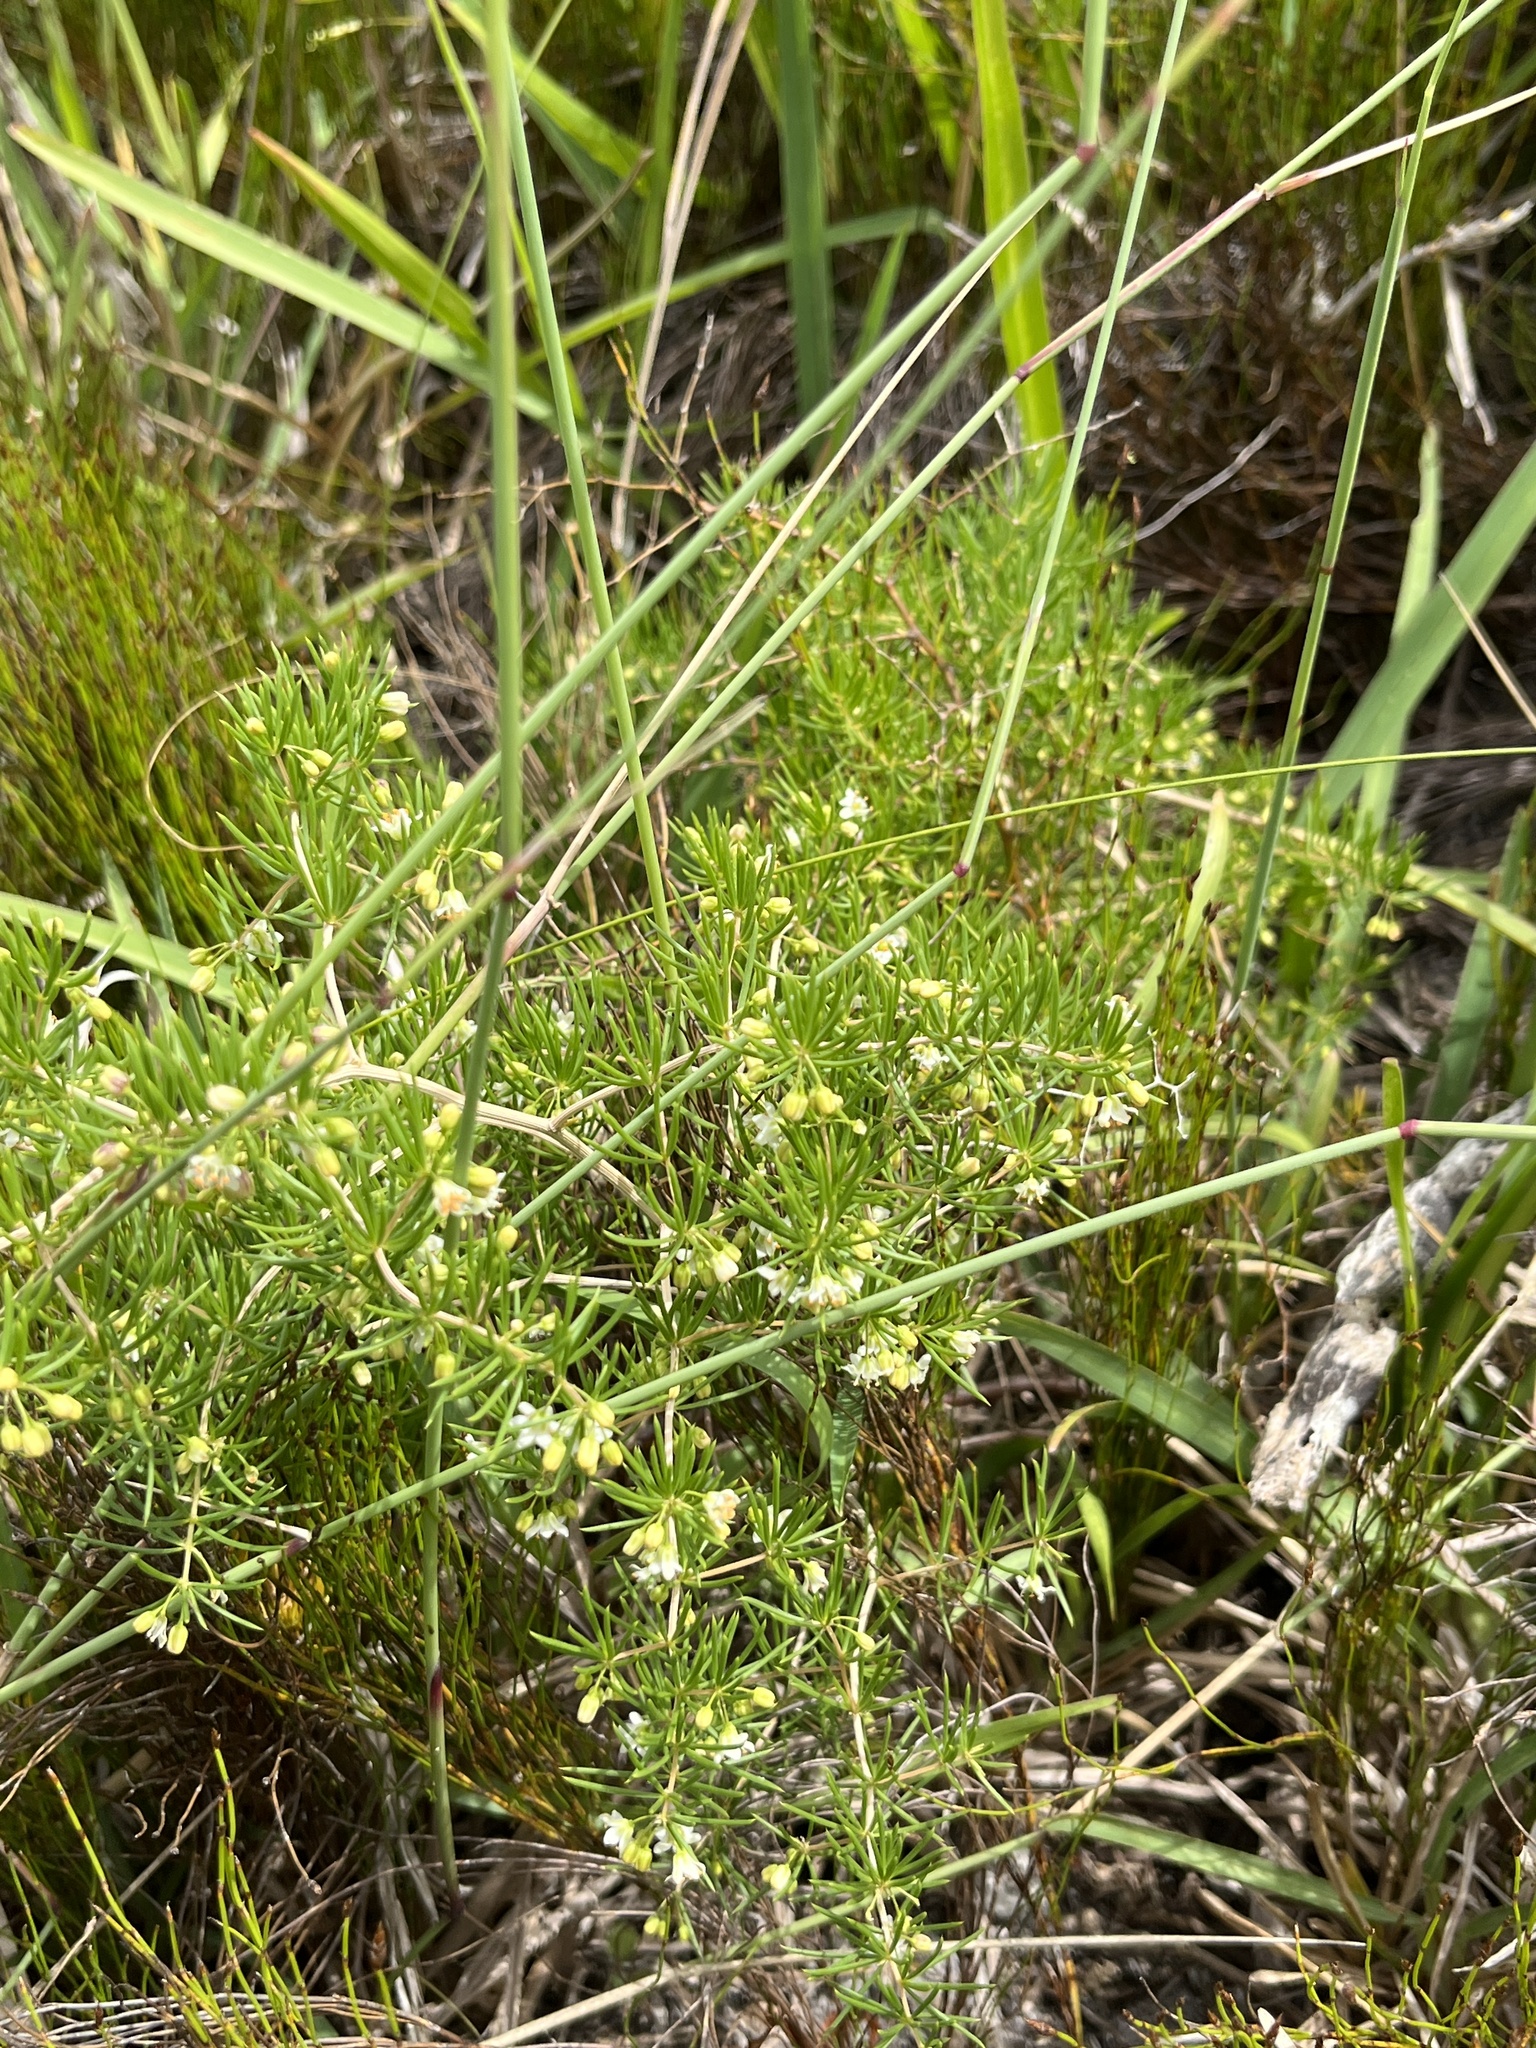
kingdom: Plantae
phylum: Tracheophyta
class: Liliopsida
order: Asparagales
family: Asparagaceae
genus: Asparagus
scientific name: Asparagus lignosus
